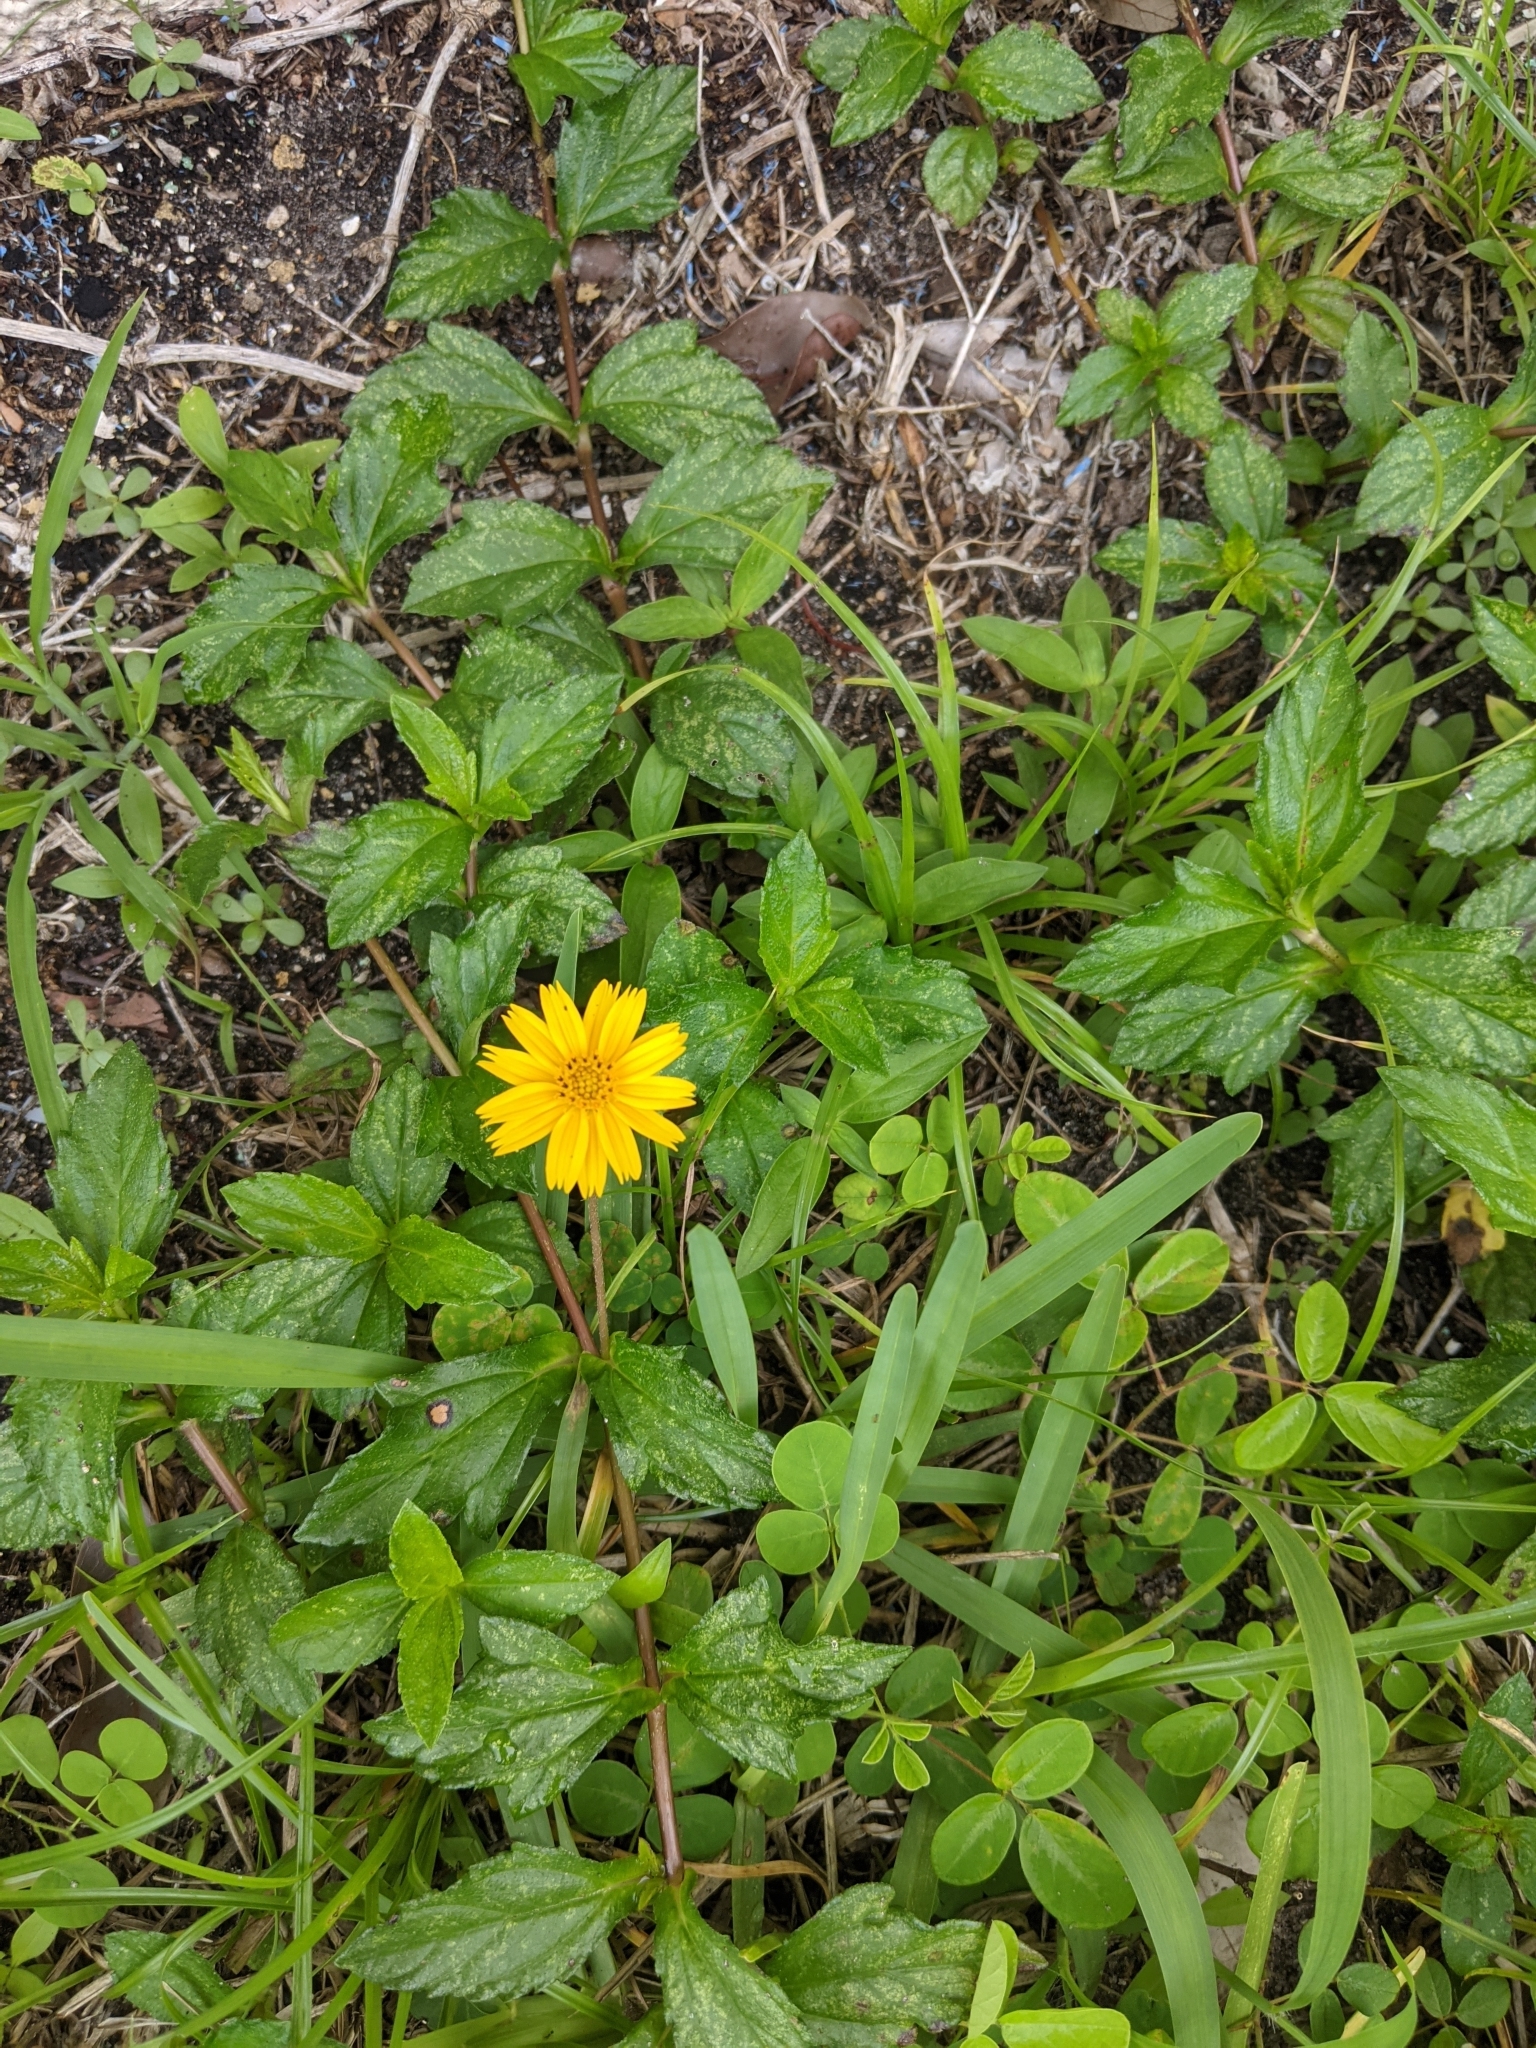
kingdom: Plantae
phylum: Tracheophyta
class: Magnoliopsida
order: Asterales
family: Asteraceae
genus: Sphagneticola
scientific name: Sphagneticola trilobata
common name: Bay biscayne creeping-oxeye
